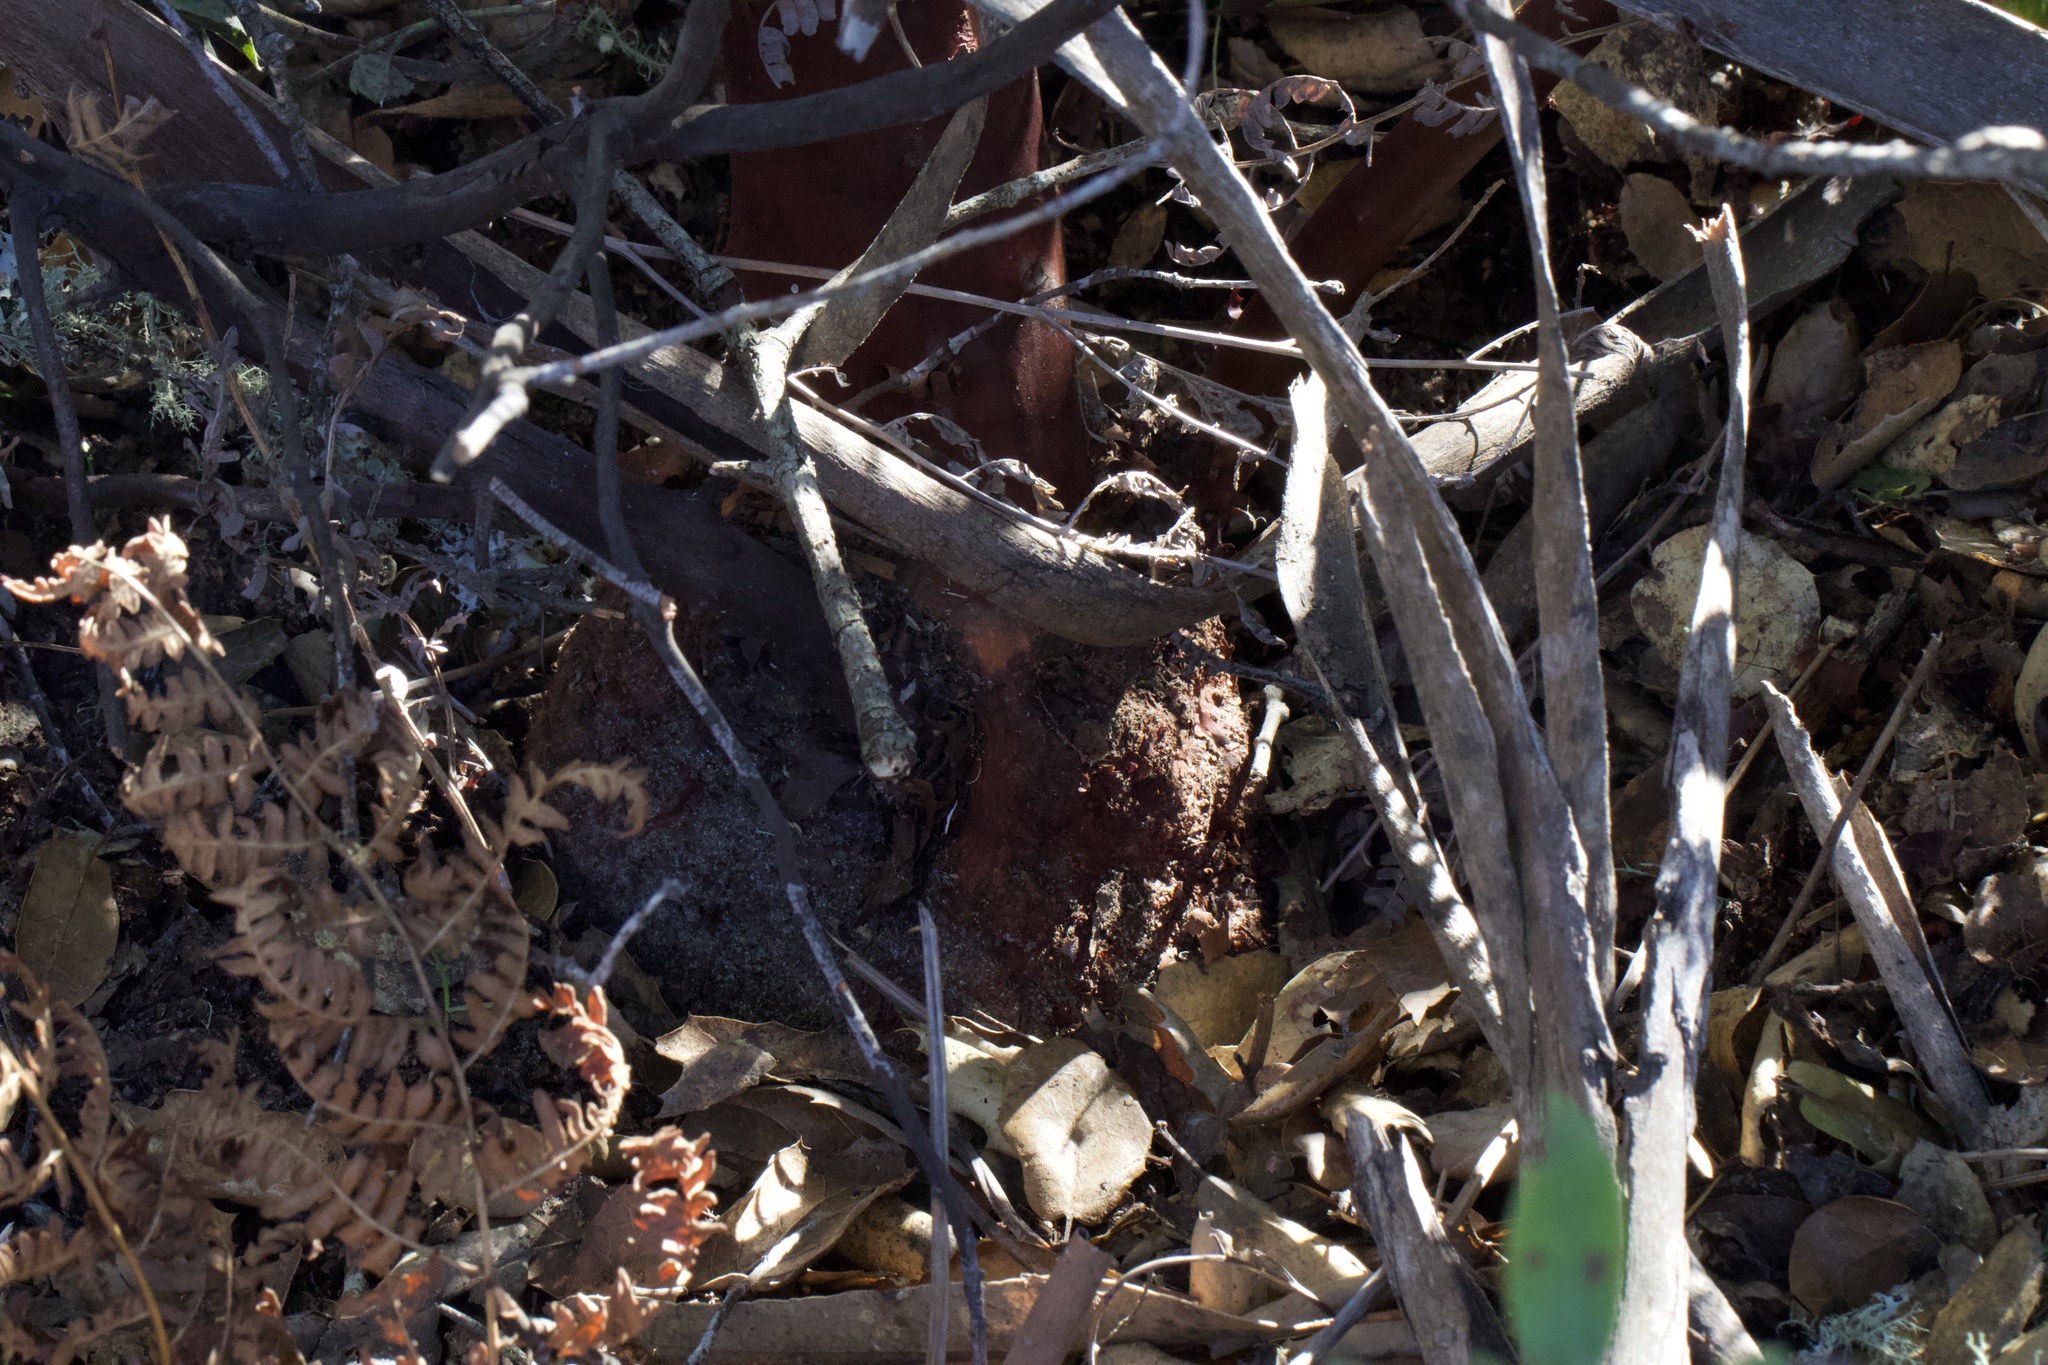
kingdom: Plantae
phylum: Tracheophyta
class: Magnoliopsida
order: Ericales
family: Ericaceae
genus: Arctostaphylos
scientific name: Arctostaphylos crustacea
